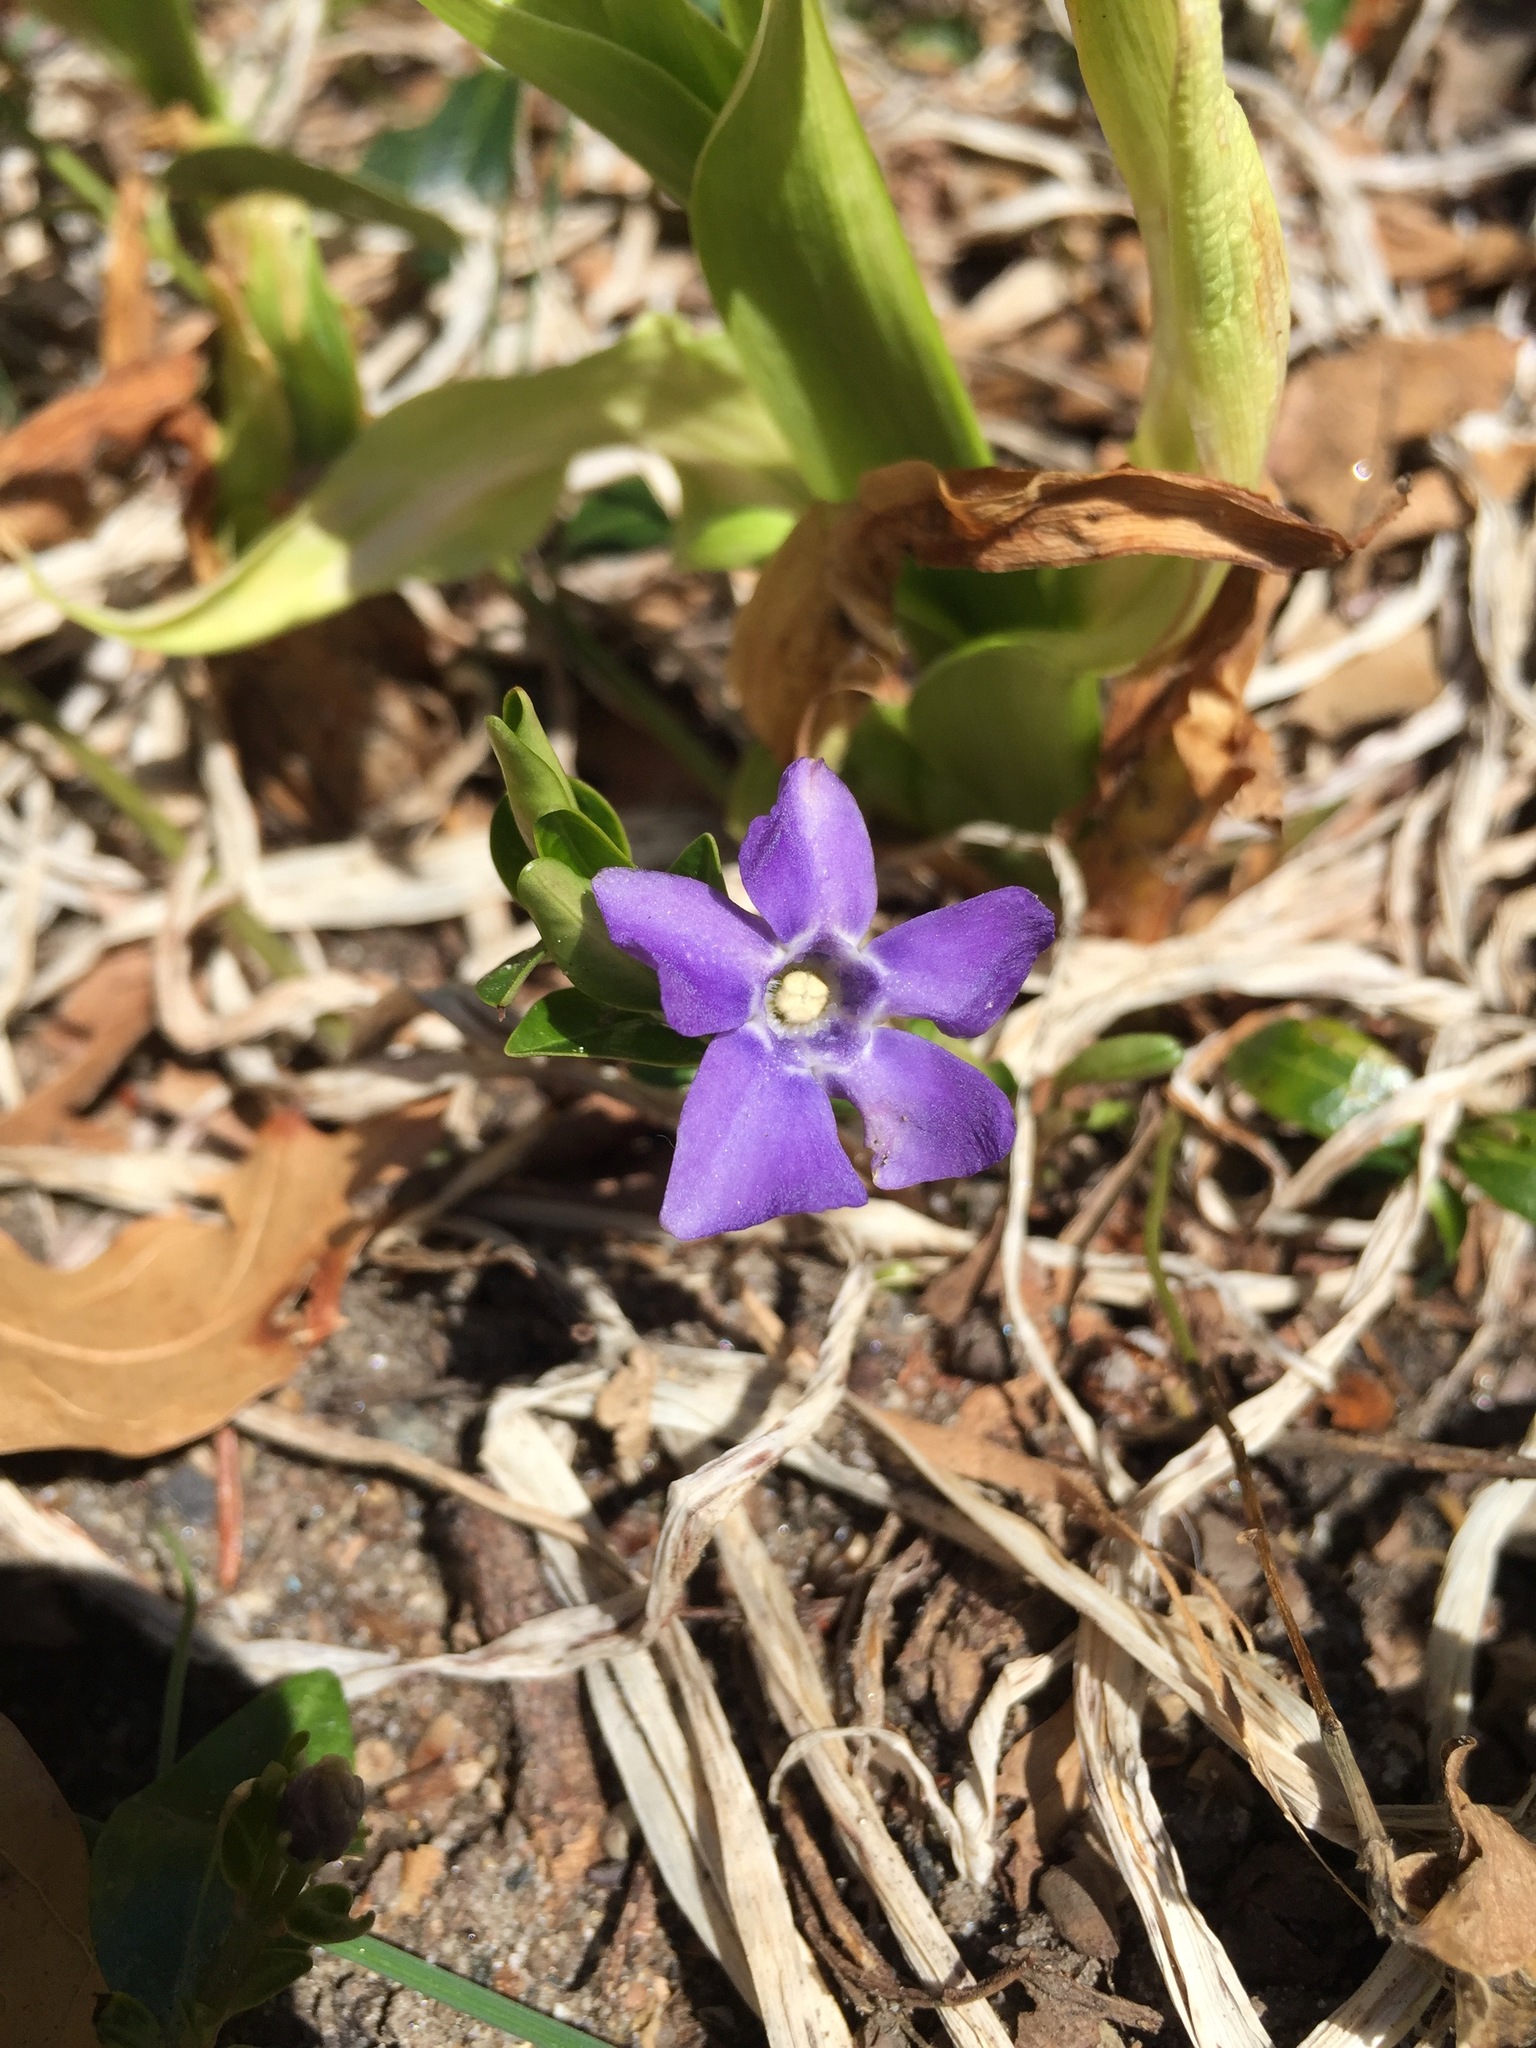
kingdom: Plantae
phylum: Tracheophyta
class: Magnoliopsida
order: Gentianales
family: Apocynaceae
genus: Vinca
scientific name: Vinca minor
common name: Lesser periwinkle
